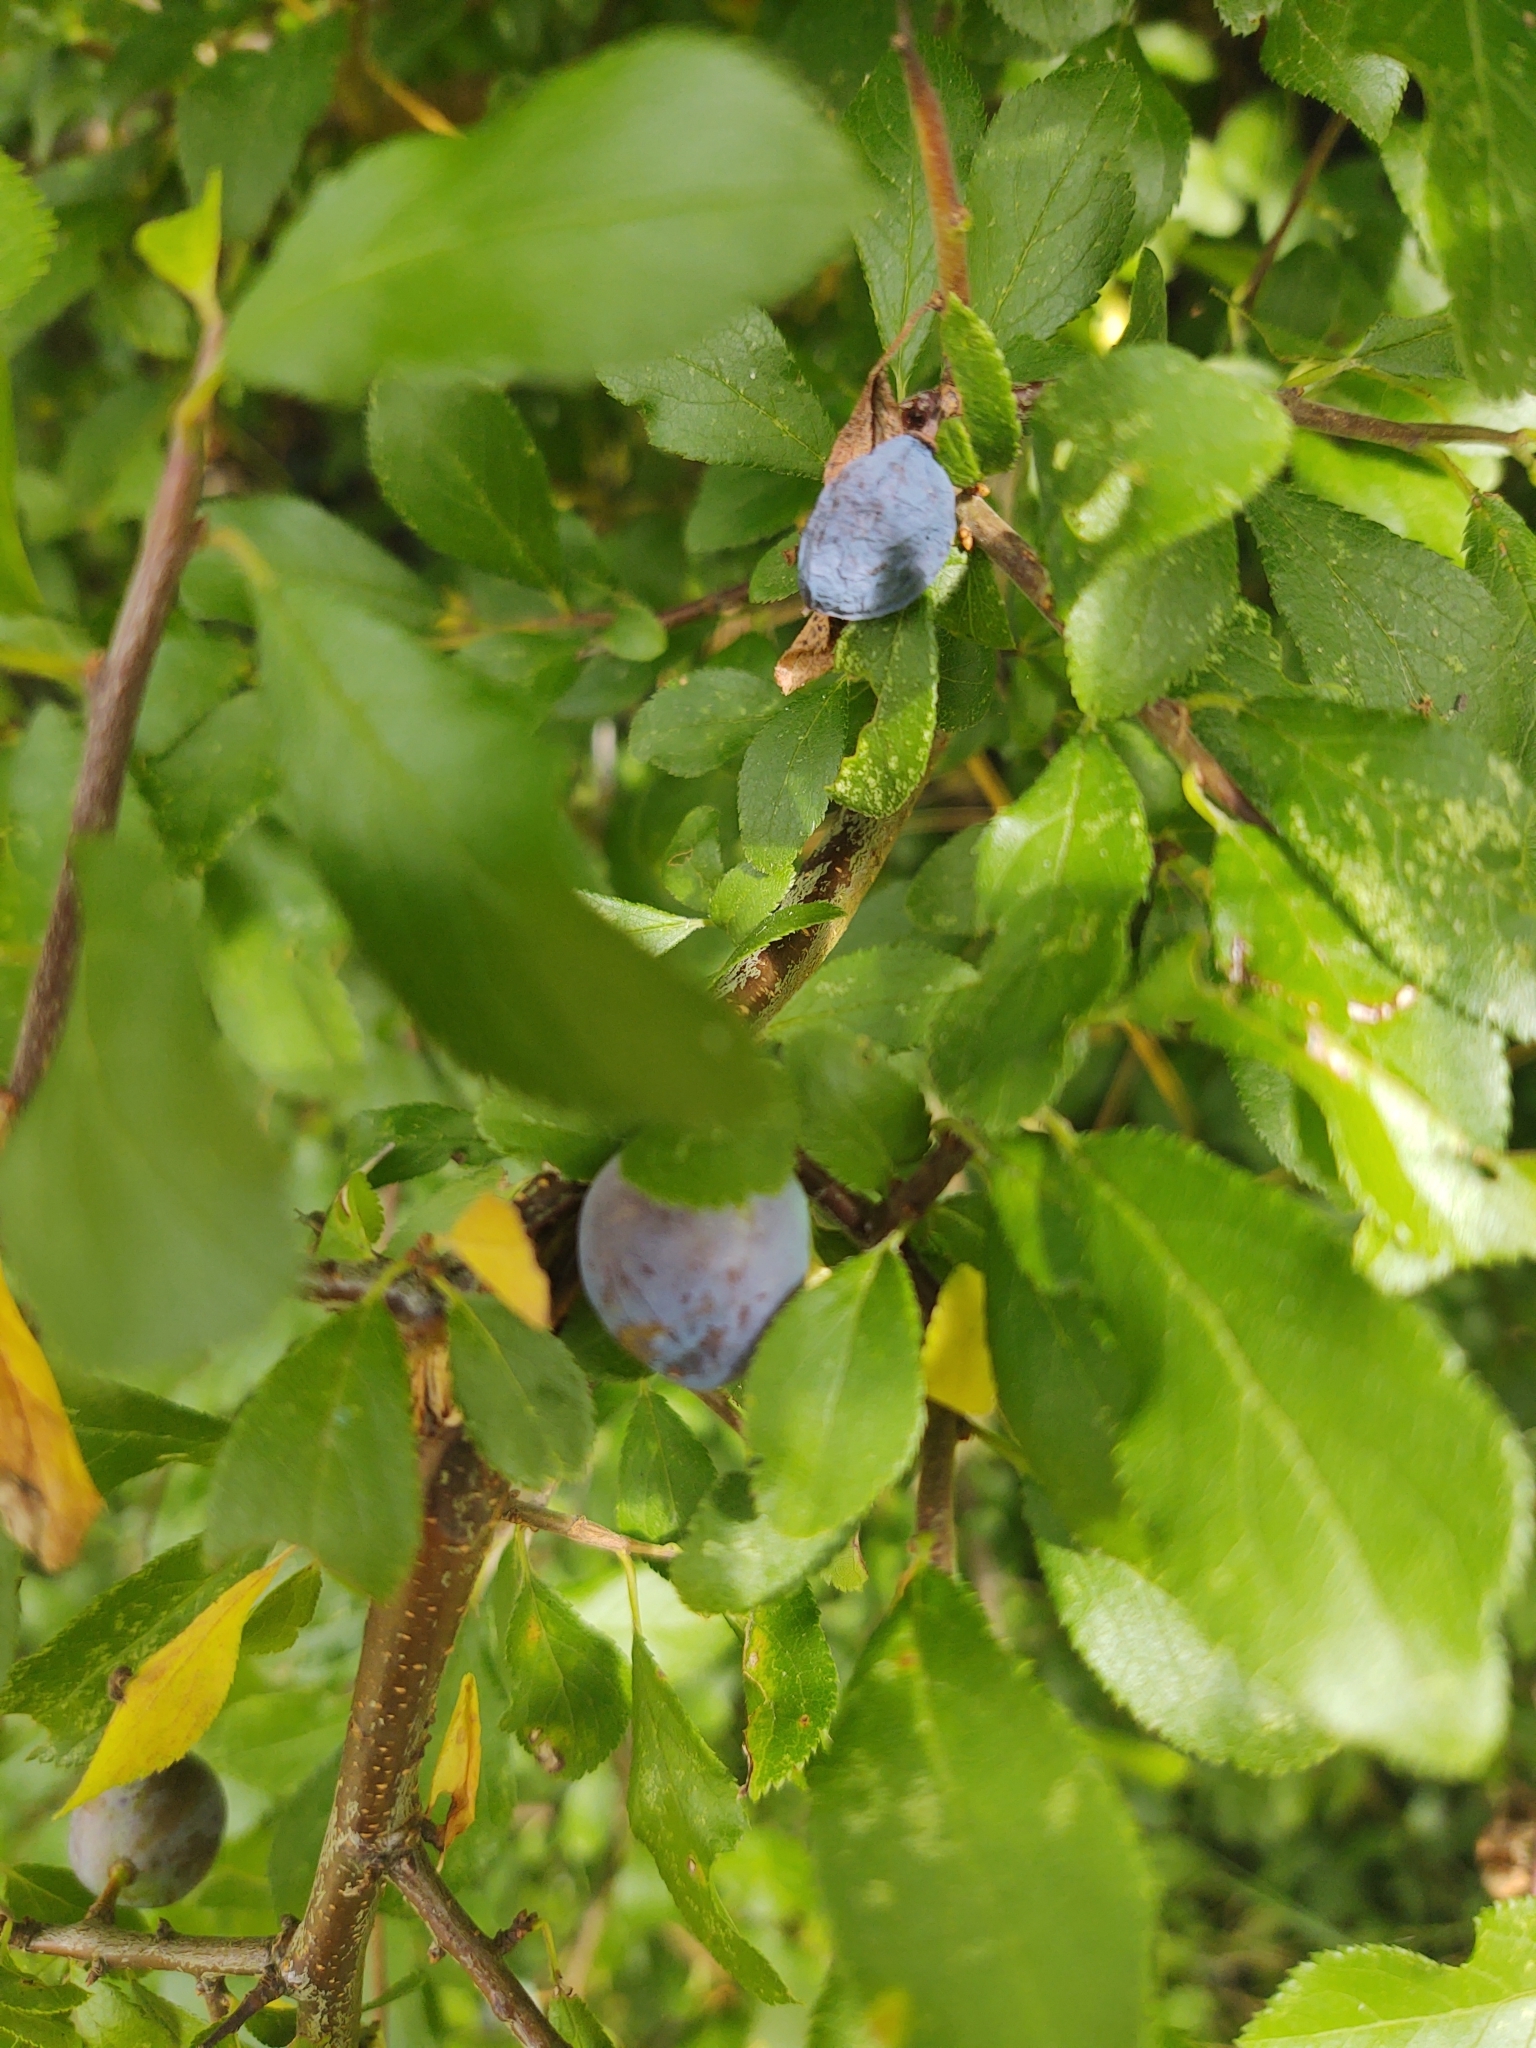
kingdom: Plantae
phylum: Tracheophyta
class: Magnoliopsida
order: Rosales
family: Rosaceae
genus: Prunus
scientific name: Prunus spinosa
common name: Blackthorn
